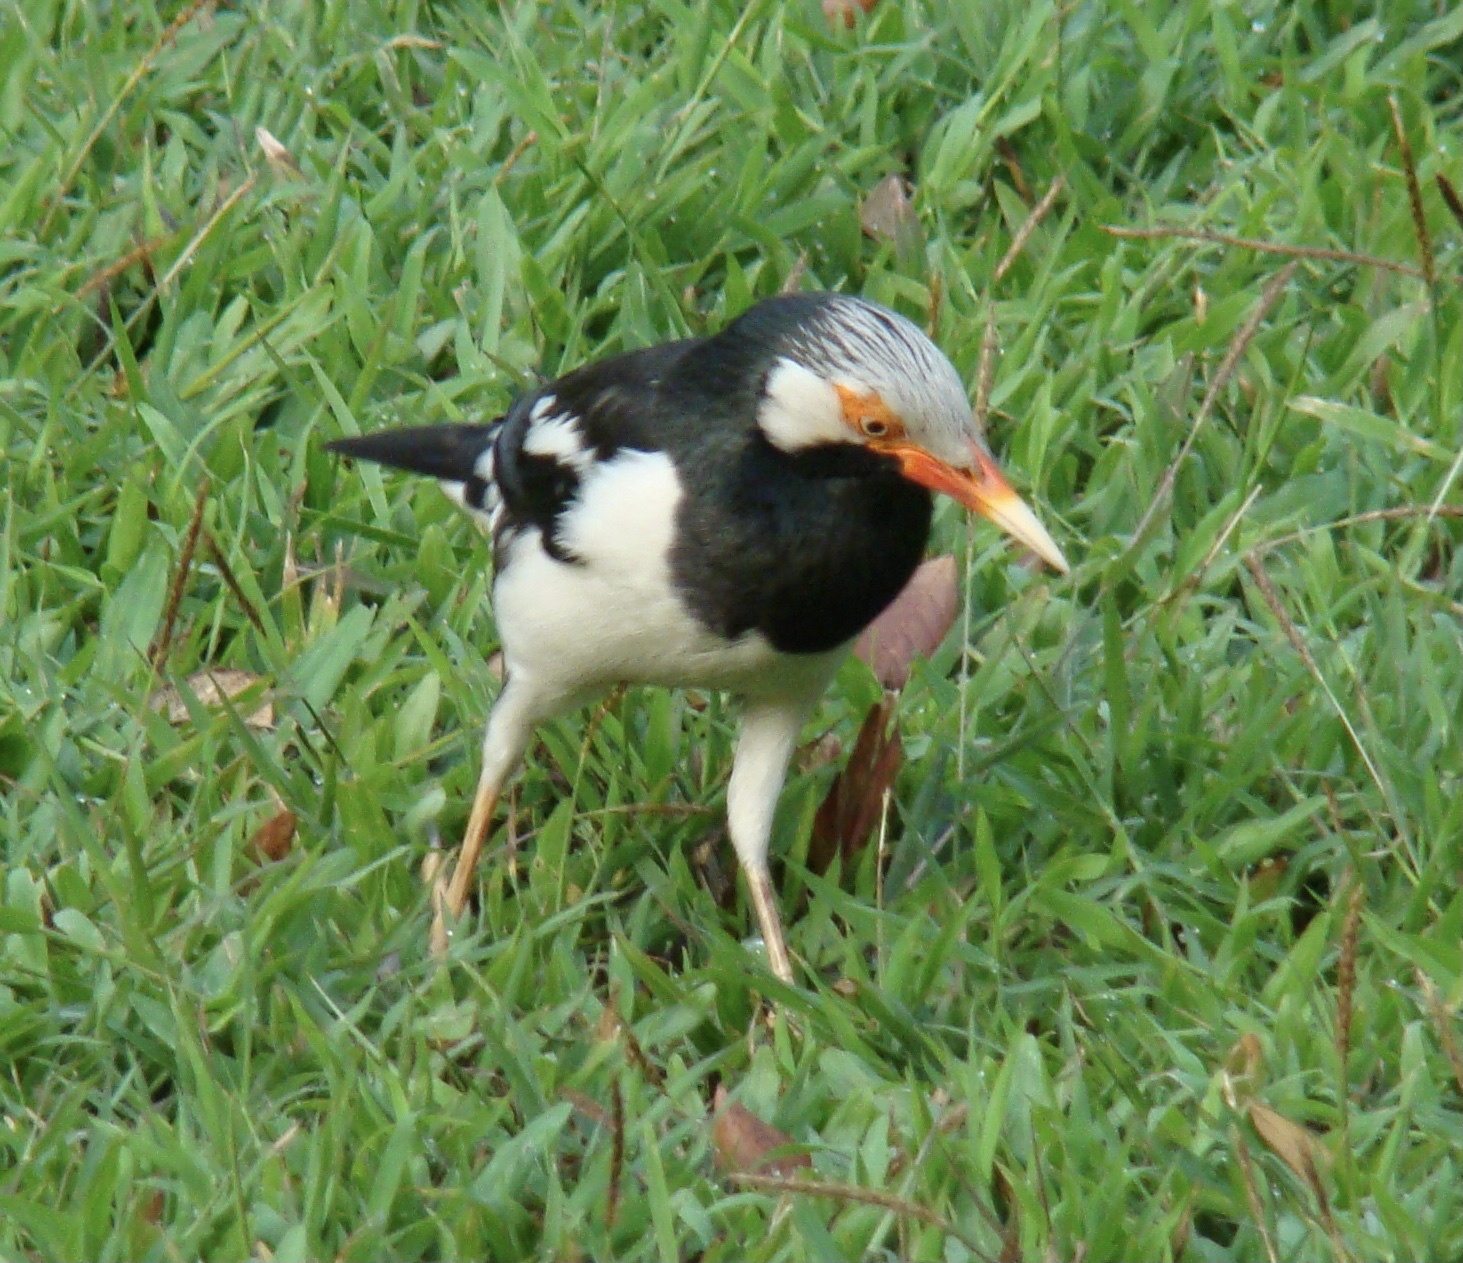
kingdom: Animalia
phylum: Chordata
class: Aves
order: Passeriformes
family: Sturnidae
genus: Gracupica
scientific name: Gracupica contra
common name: Pied myna
